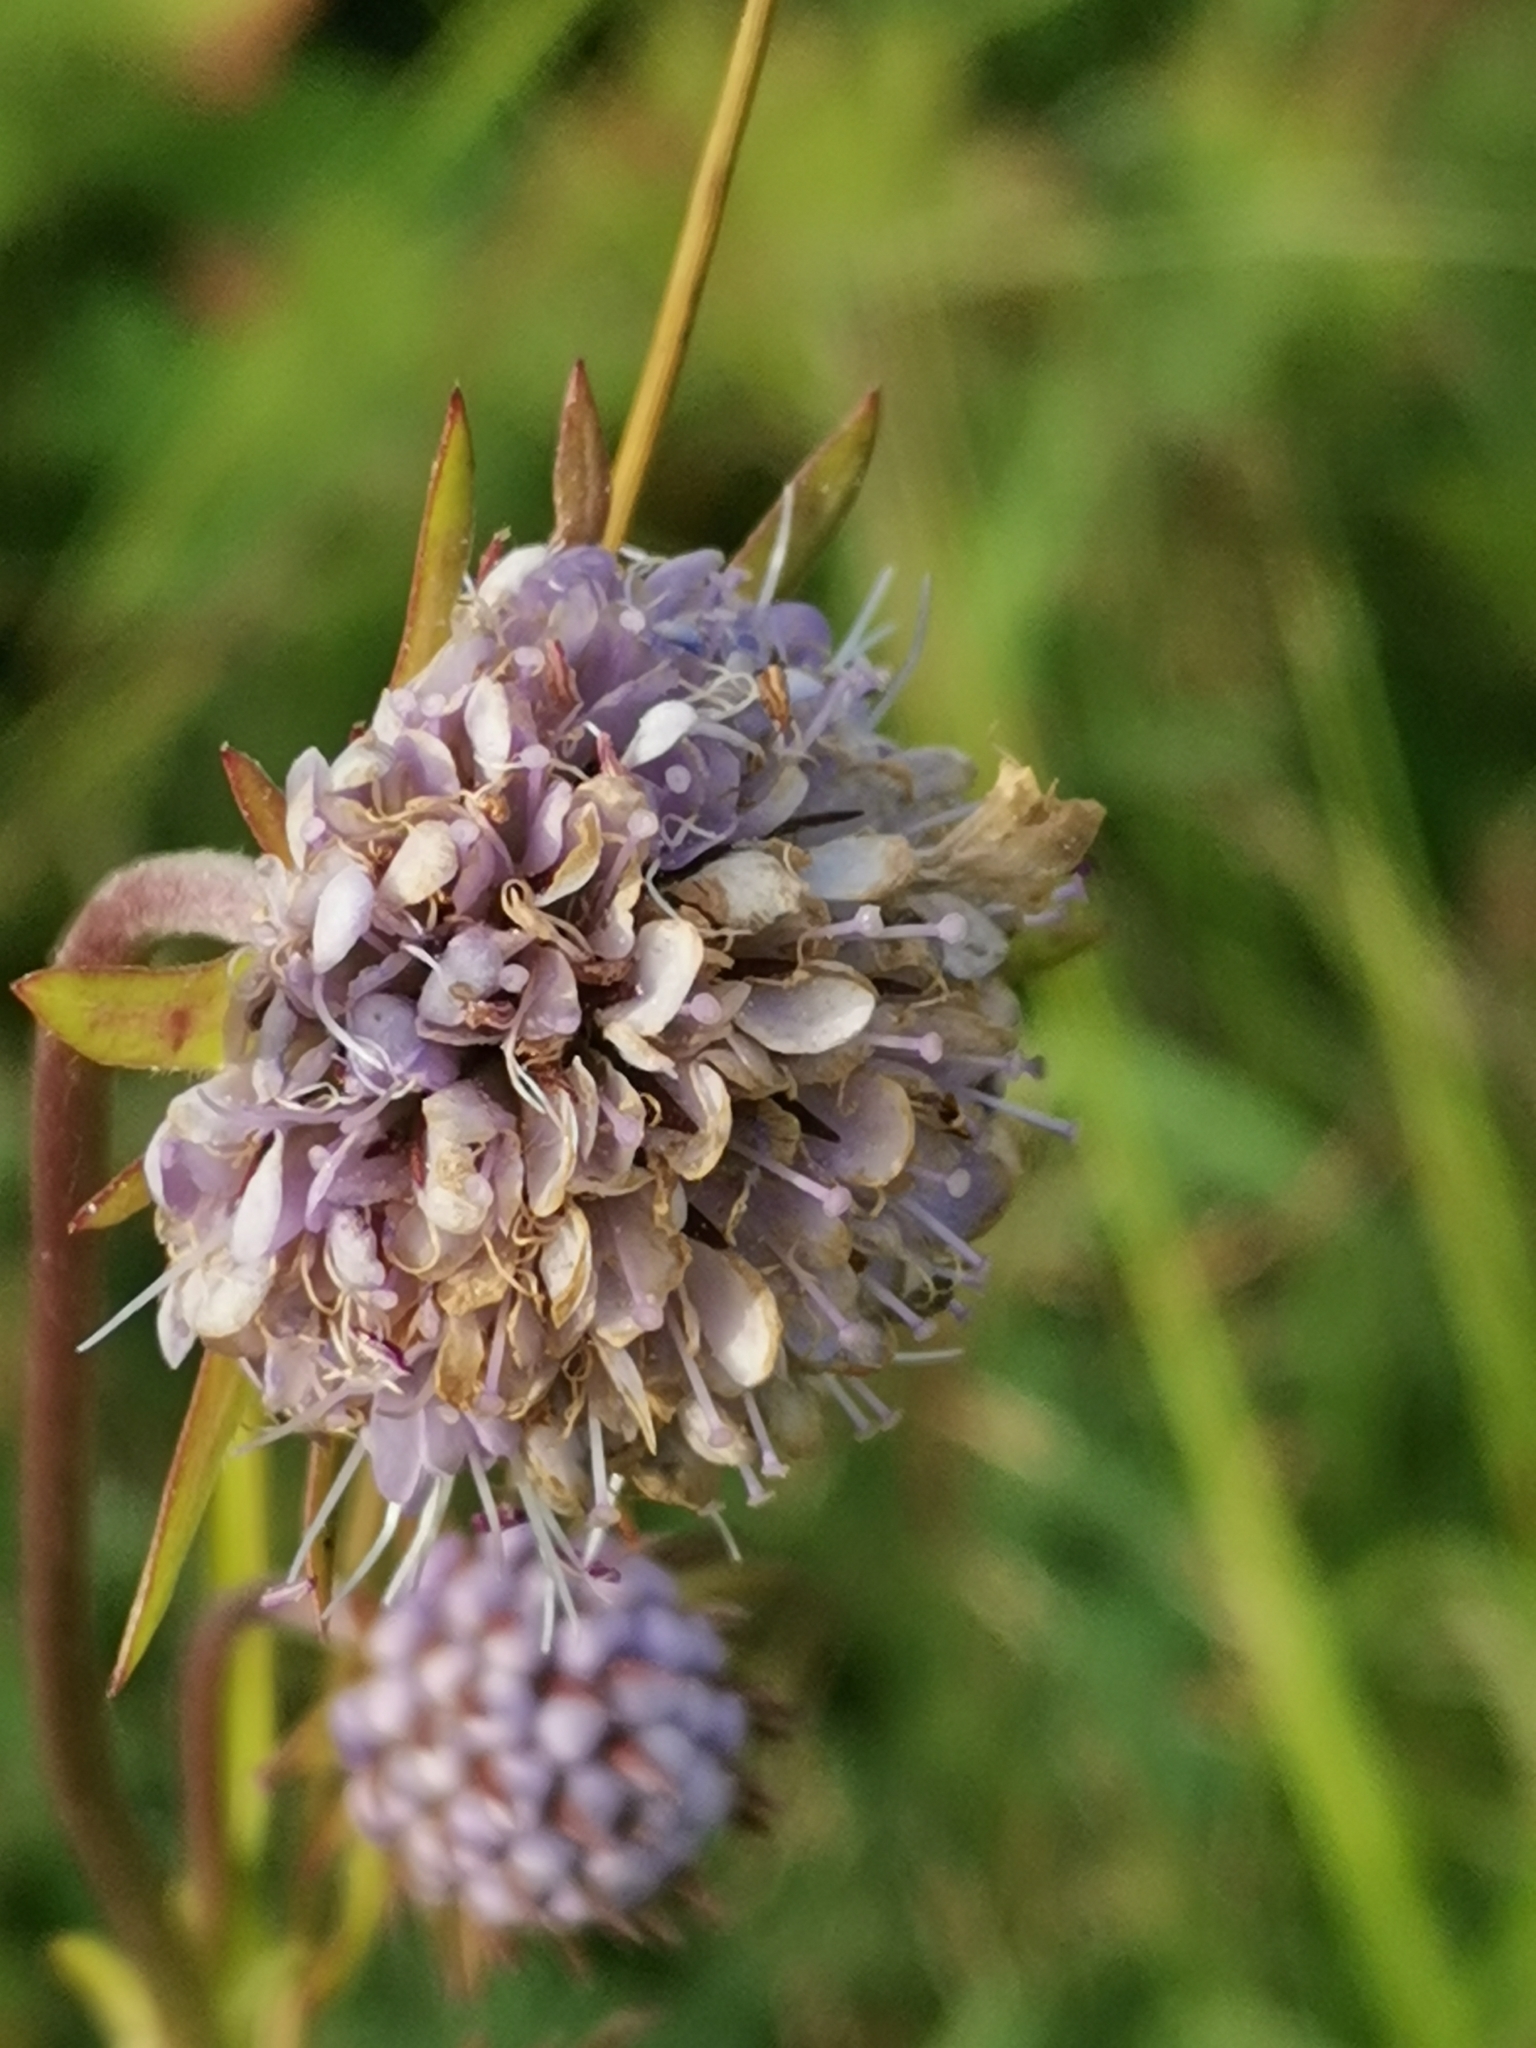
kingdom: Plantae
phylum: Tracheophyta
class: Magnoliopsida
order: Dipsacales
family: Caprifoliaceae
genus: Succisa
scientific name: Succisa pratensis
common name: Devil's-bit
